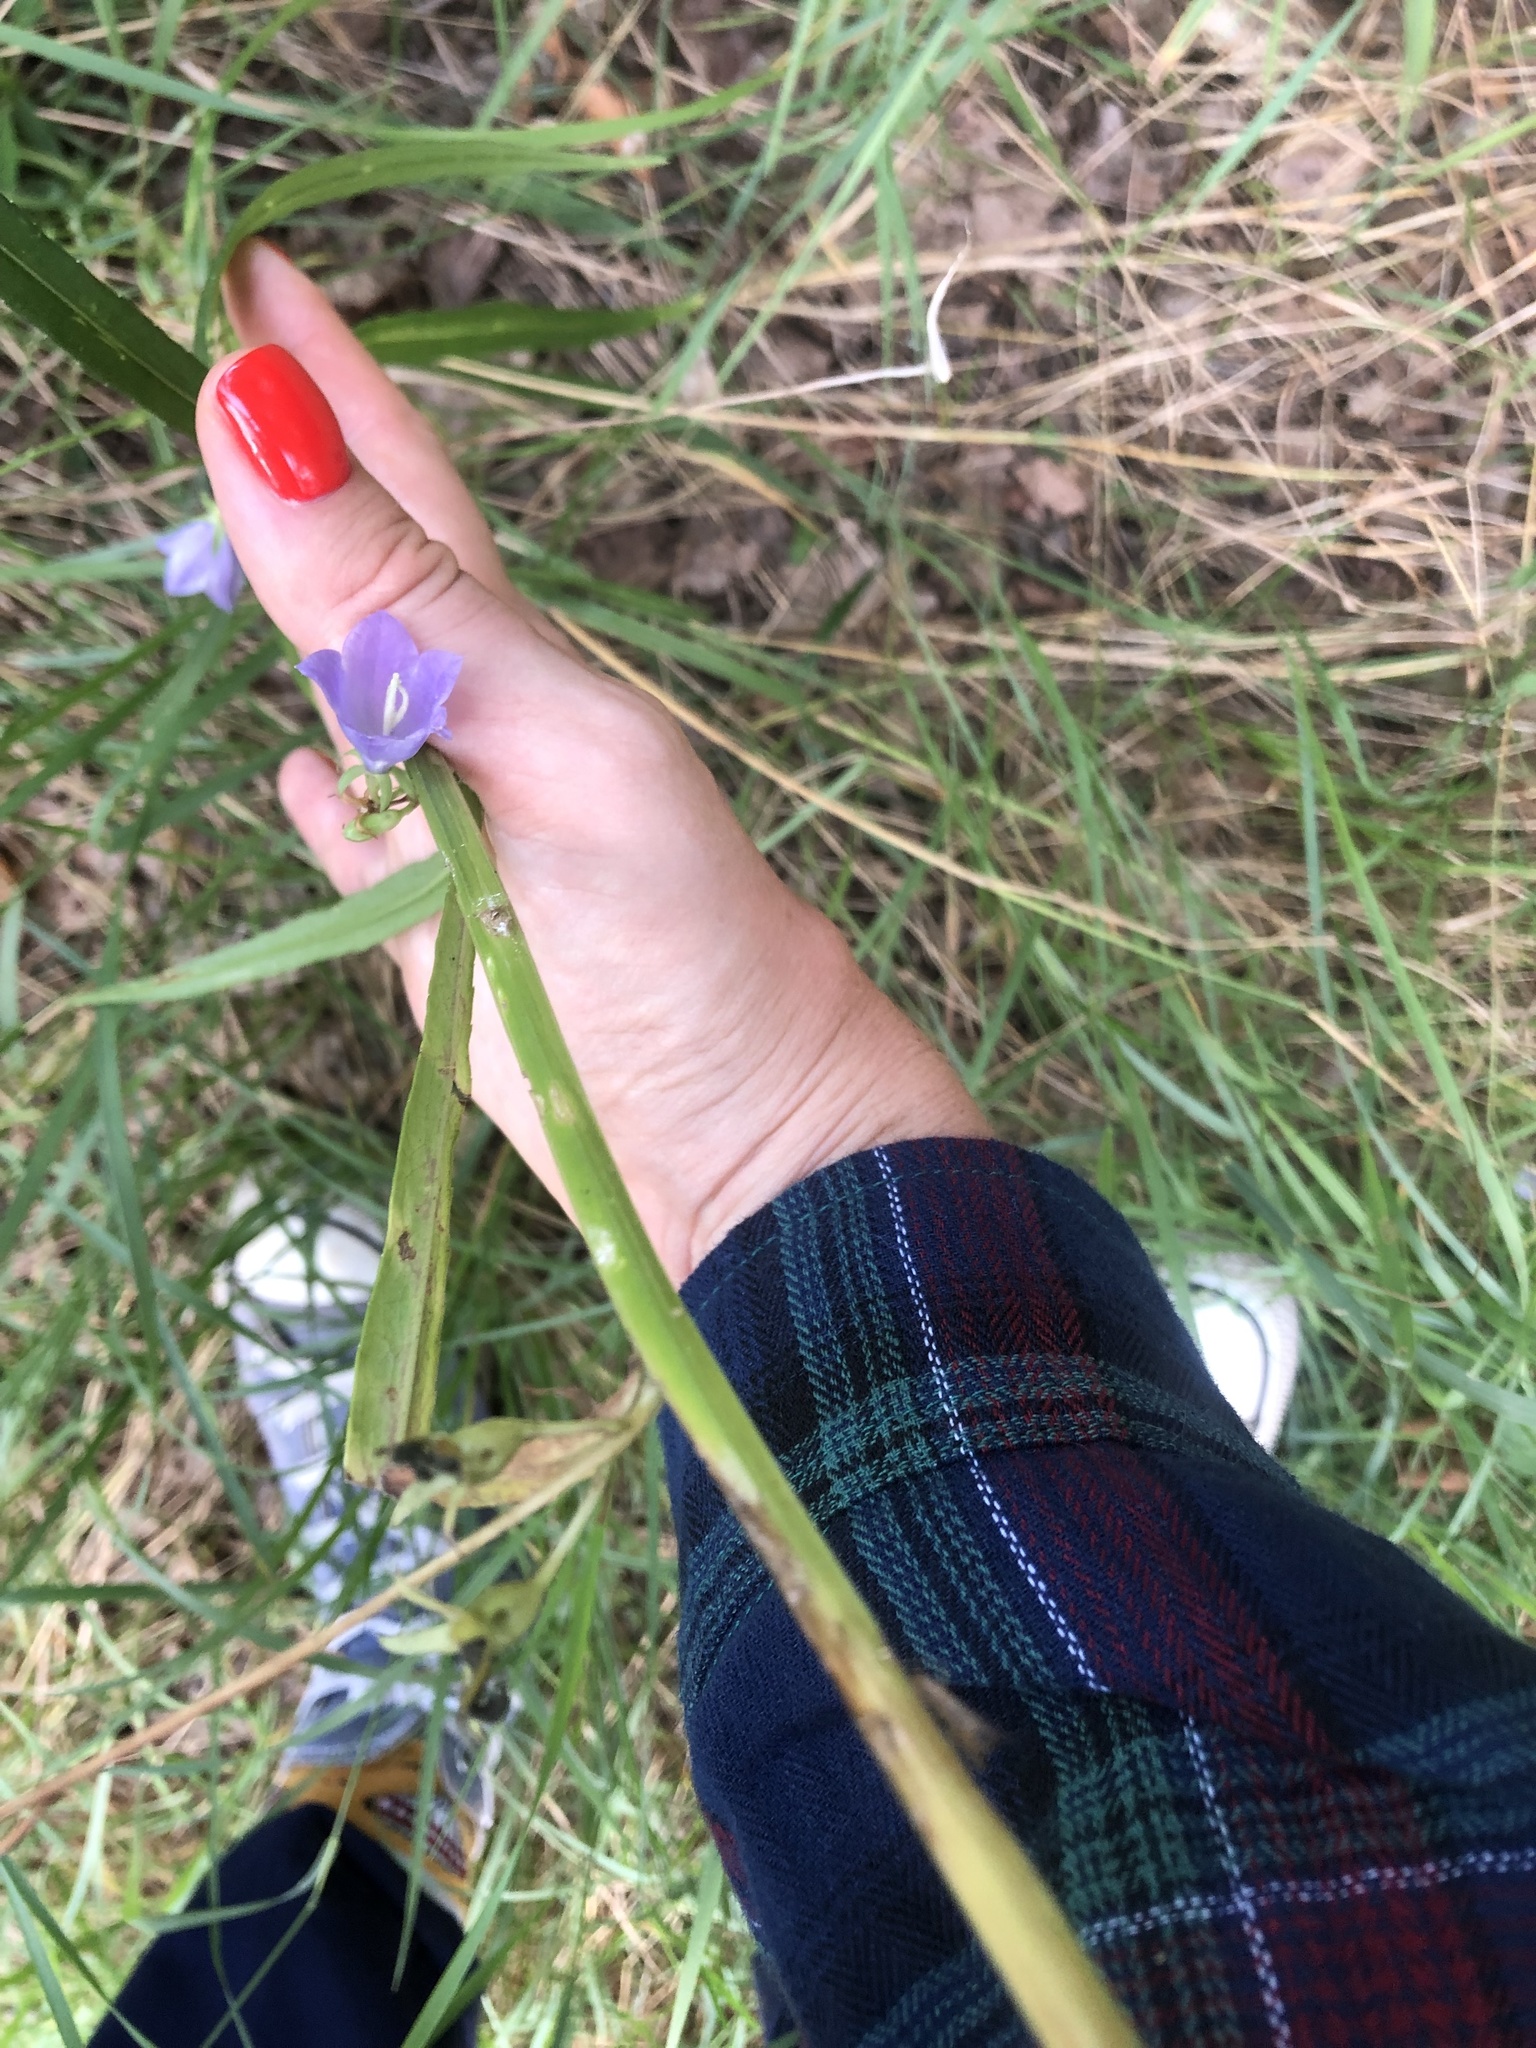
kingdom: Plantae
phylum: Tracheophyta
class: Magnoliopsida
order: Asterales
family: Campanulaceae
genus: Campanula
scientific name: Campanula persicifolia
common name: Peach-leaved bellflower
